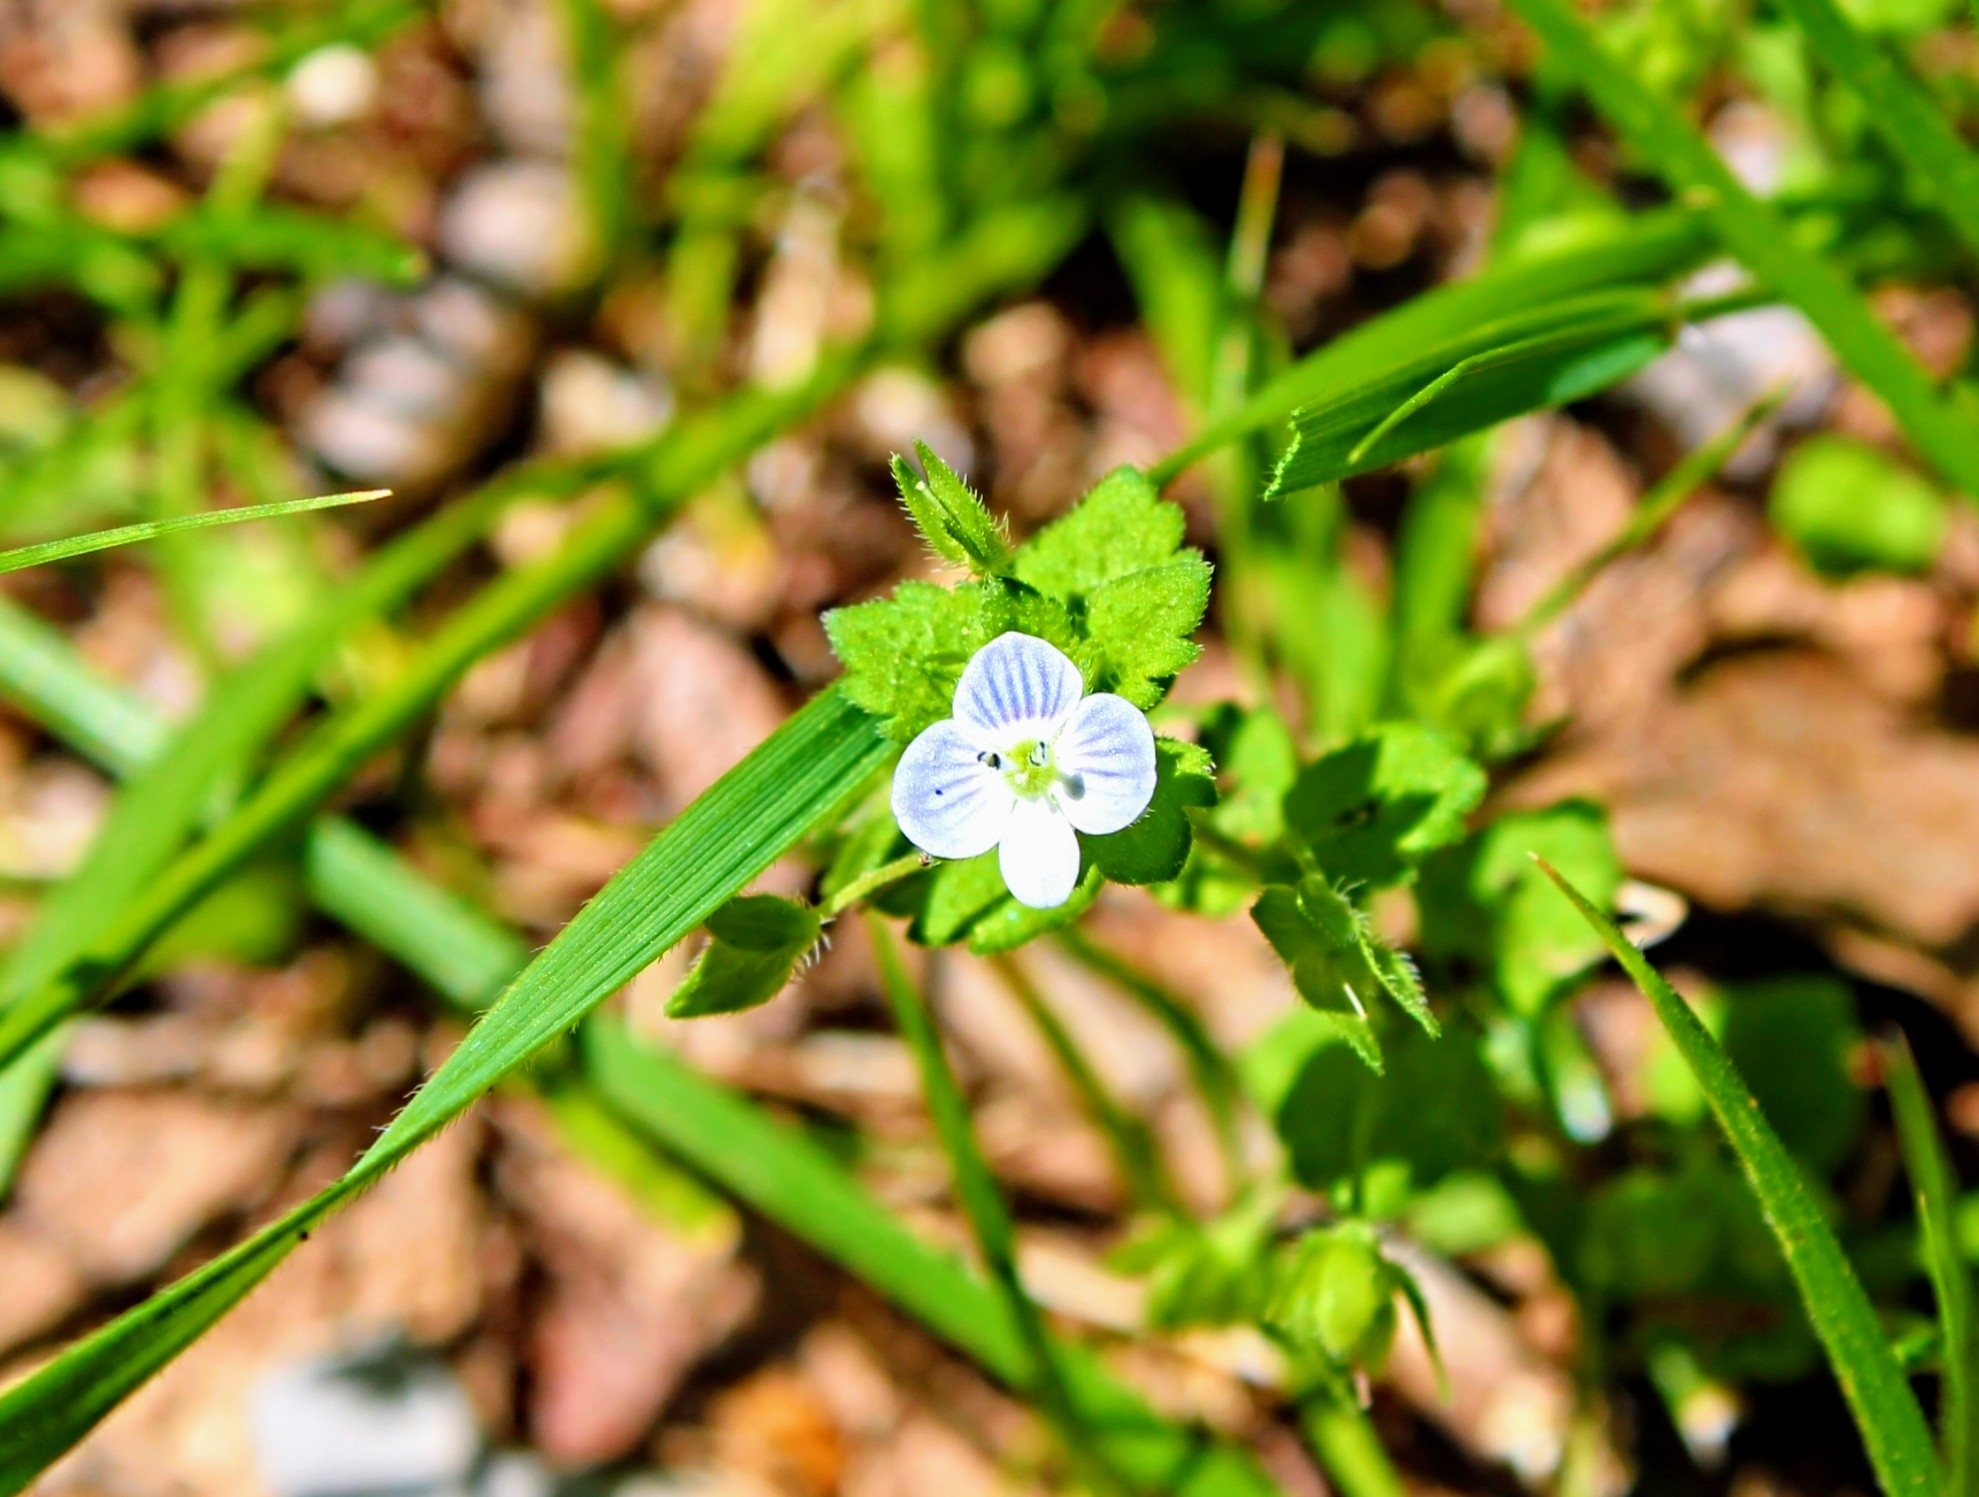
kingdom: Plantae
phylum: Tracheophyta
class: Magnoliopsida
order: Lamiales
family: Plantaginaceae
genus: Veronica
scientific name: Veronica persica
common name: Common field-speedwell
